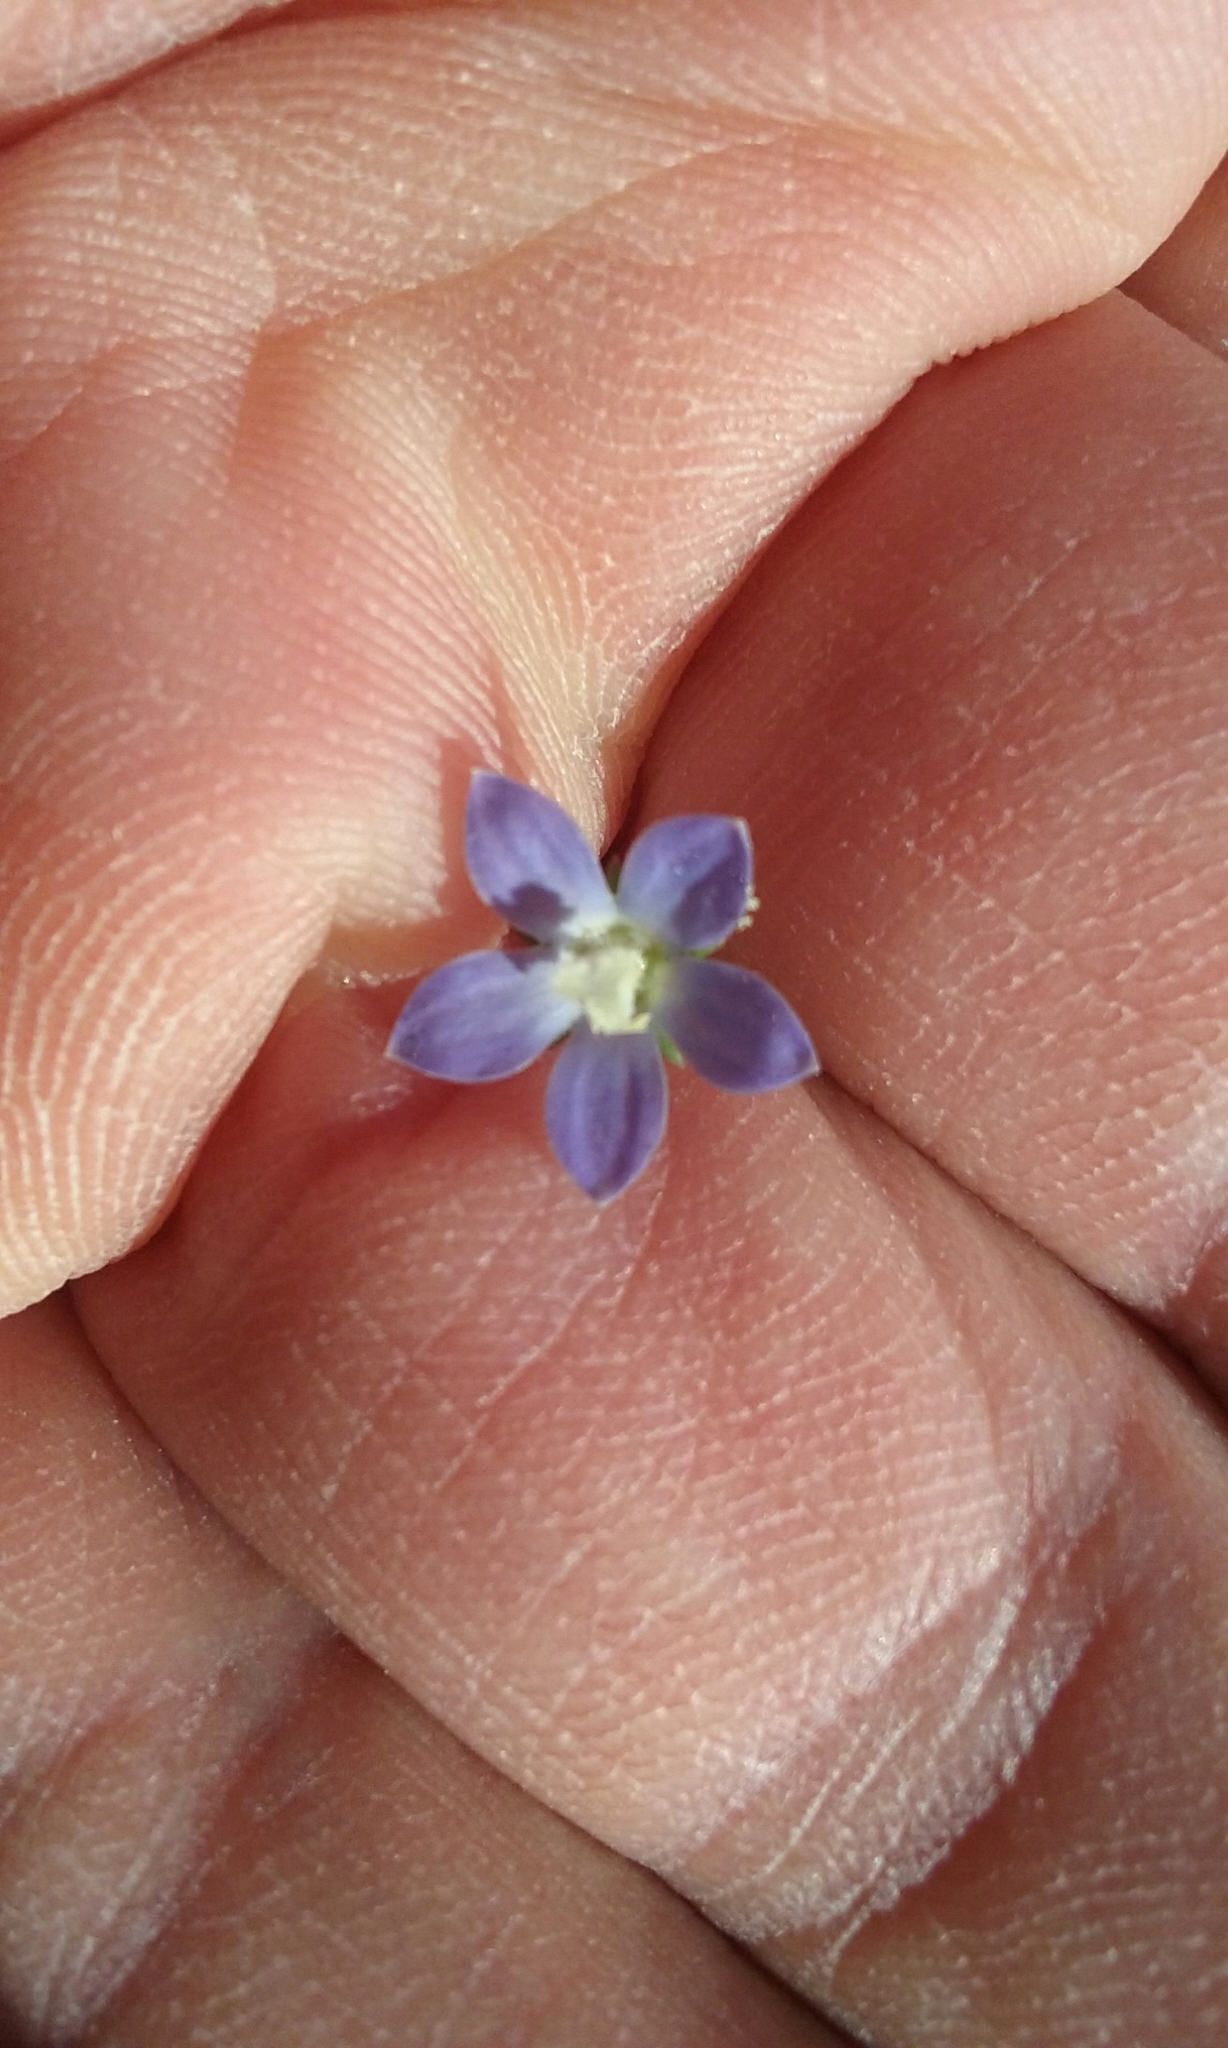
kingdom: Plantae
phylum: Tracheophyta
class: Magnoliopsida
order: Asterales
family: Campanulaceae
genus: Wahlenbergia
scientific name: Wahlenbergia marginata
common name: Southern rockbell
